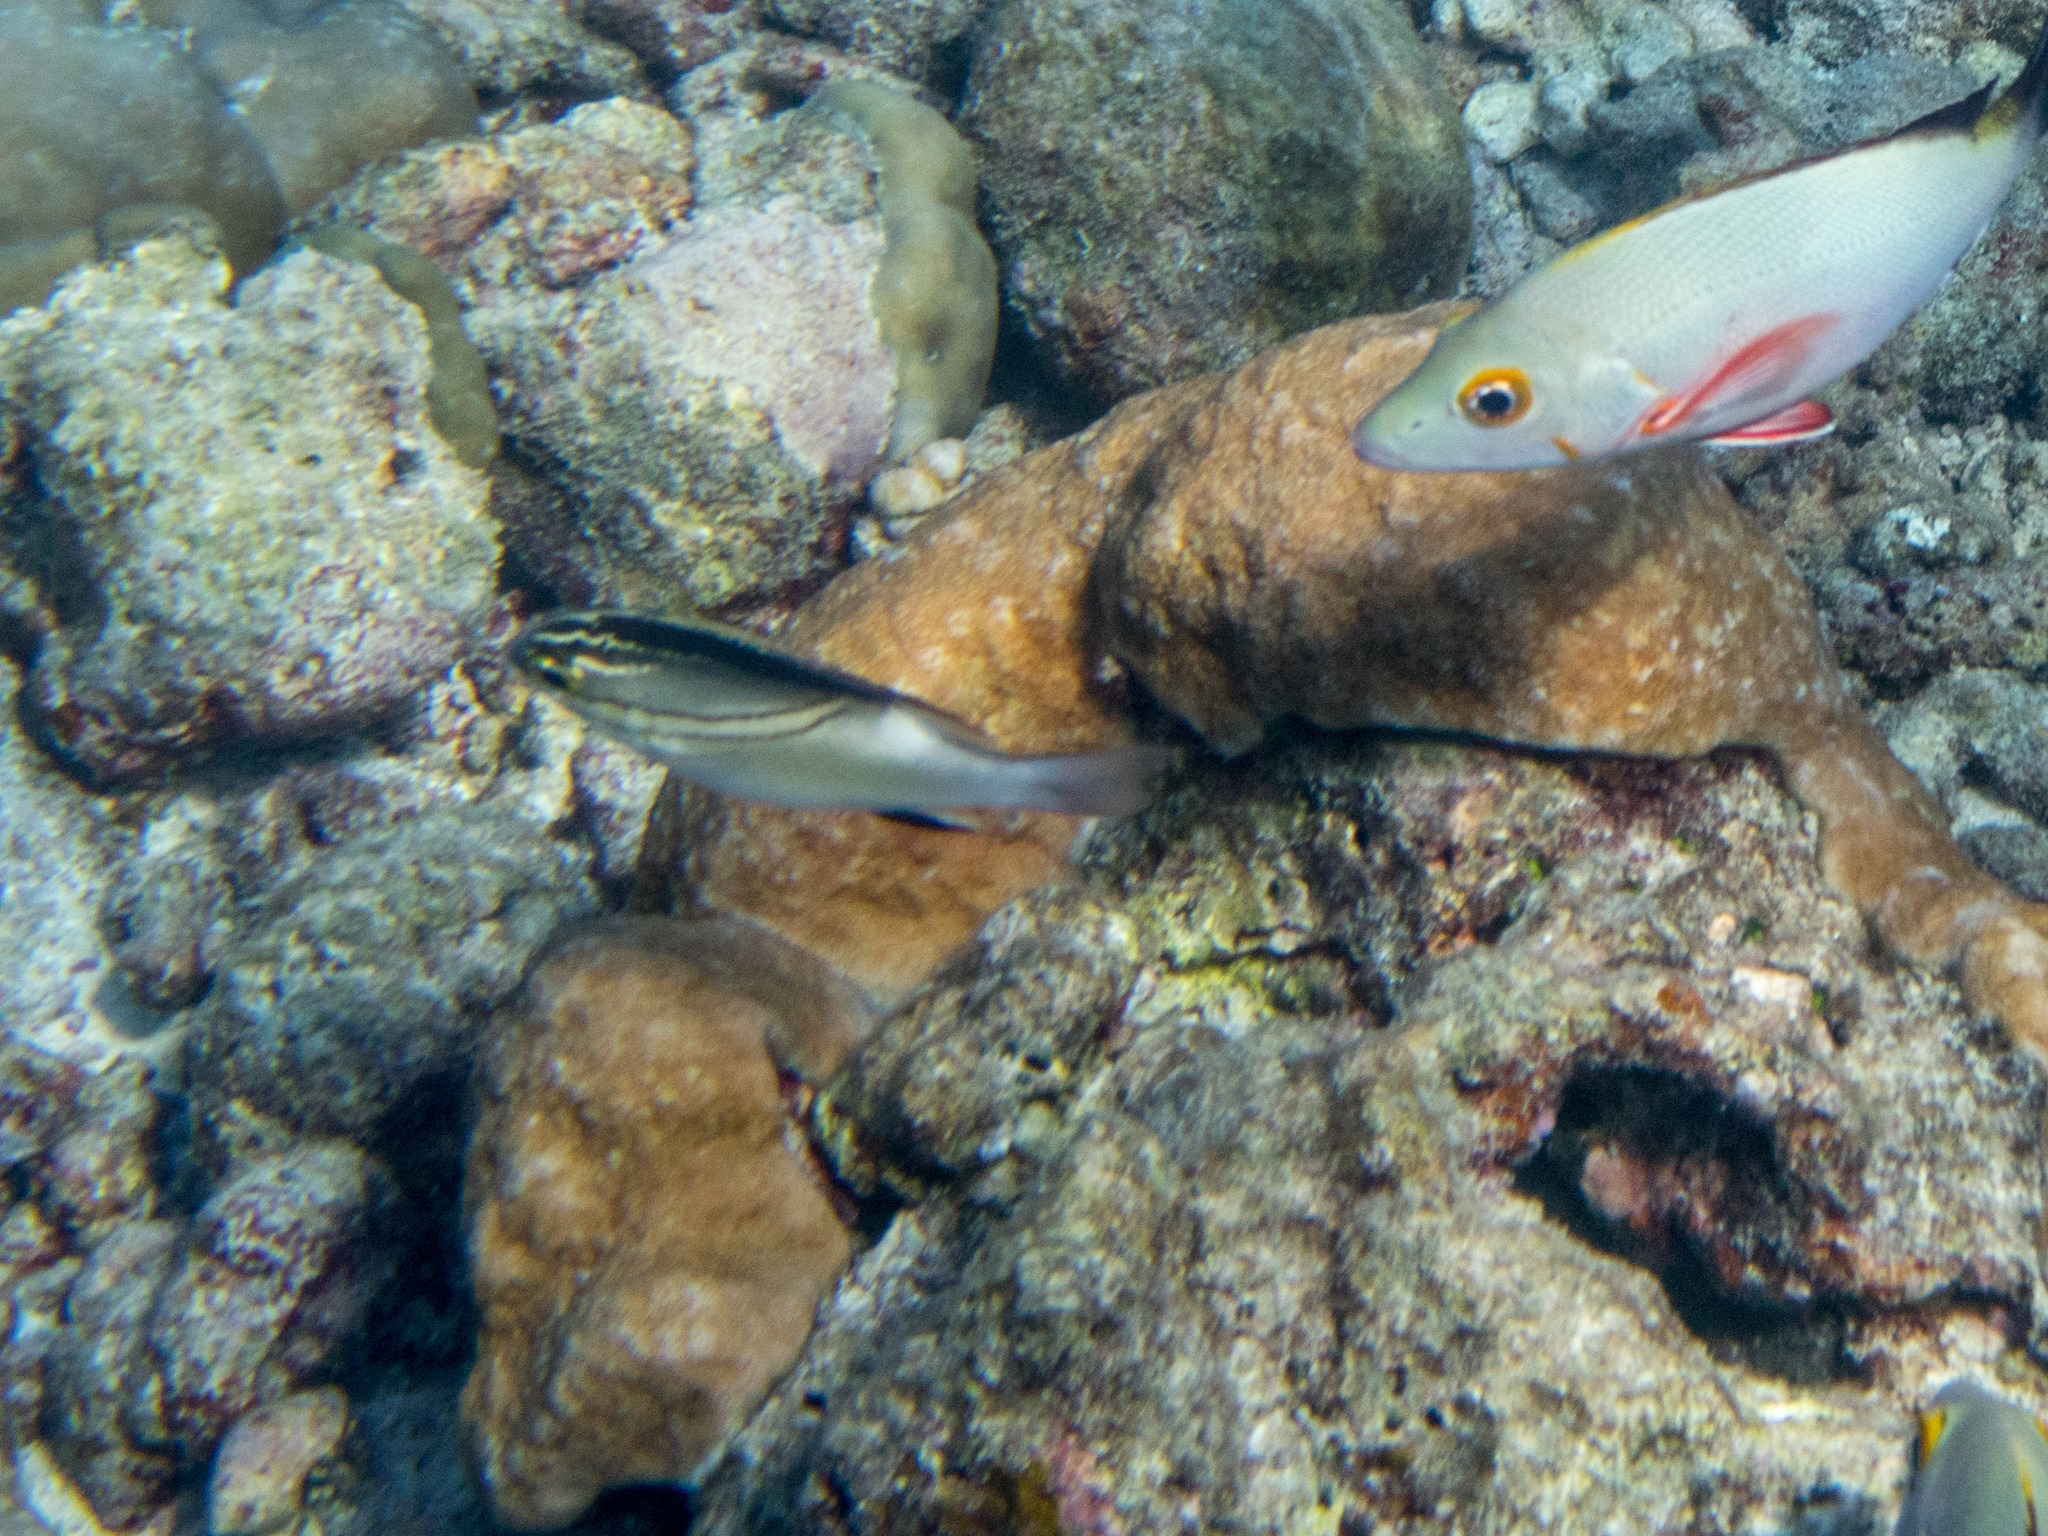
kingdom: Animalia
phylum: Chordata
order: Perciformes
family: Nemipteridae
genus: Scolopsis
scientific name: Scolopsis bilineata
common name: Two-lined monocle bream
